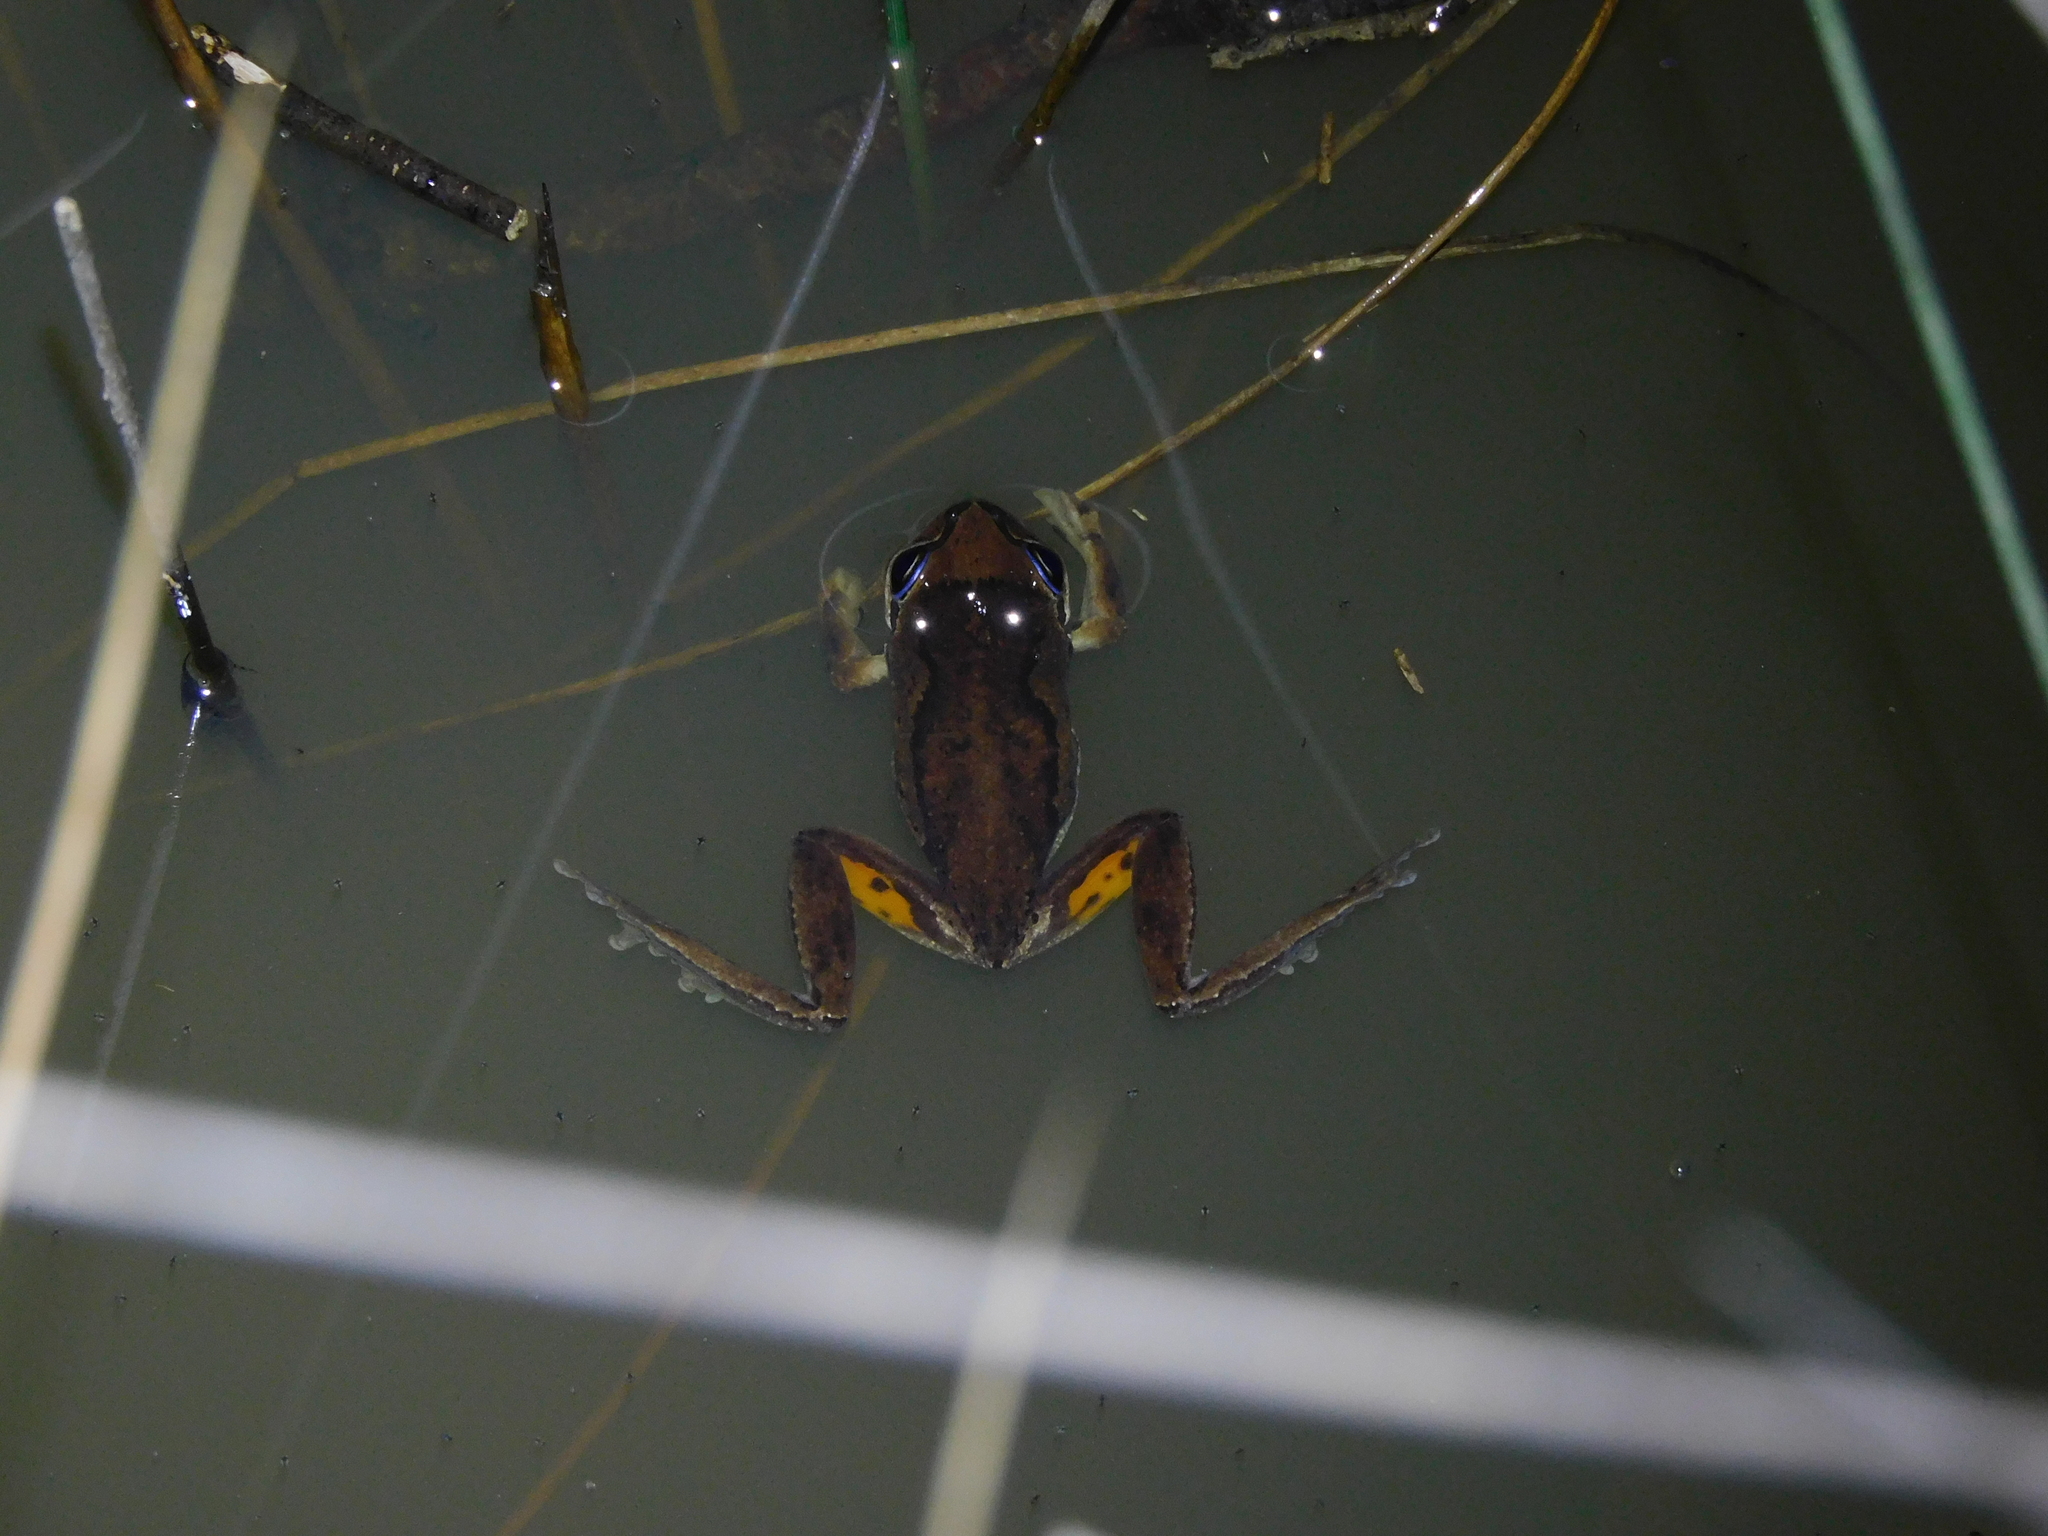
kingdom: Animalia
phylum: Chordata
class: Amphibia
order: Anura
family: Pelodryadidae
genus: Litoria
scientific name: Litoria ewingii
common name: Southern brown tree frog
